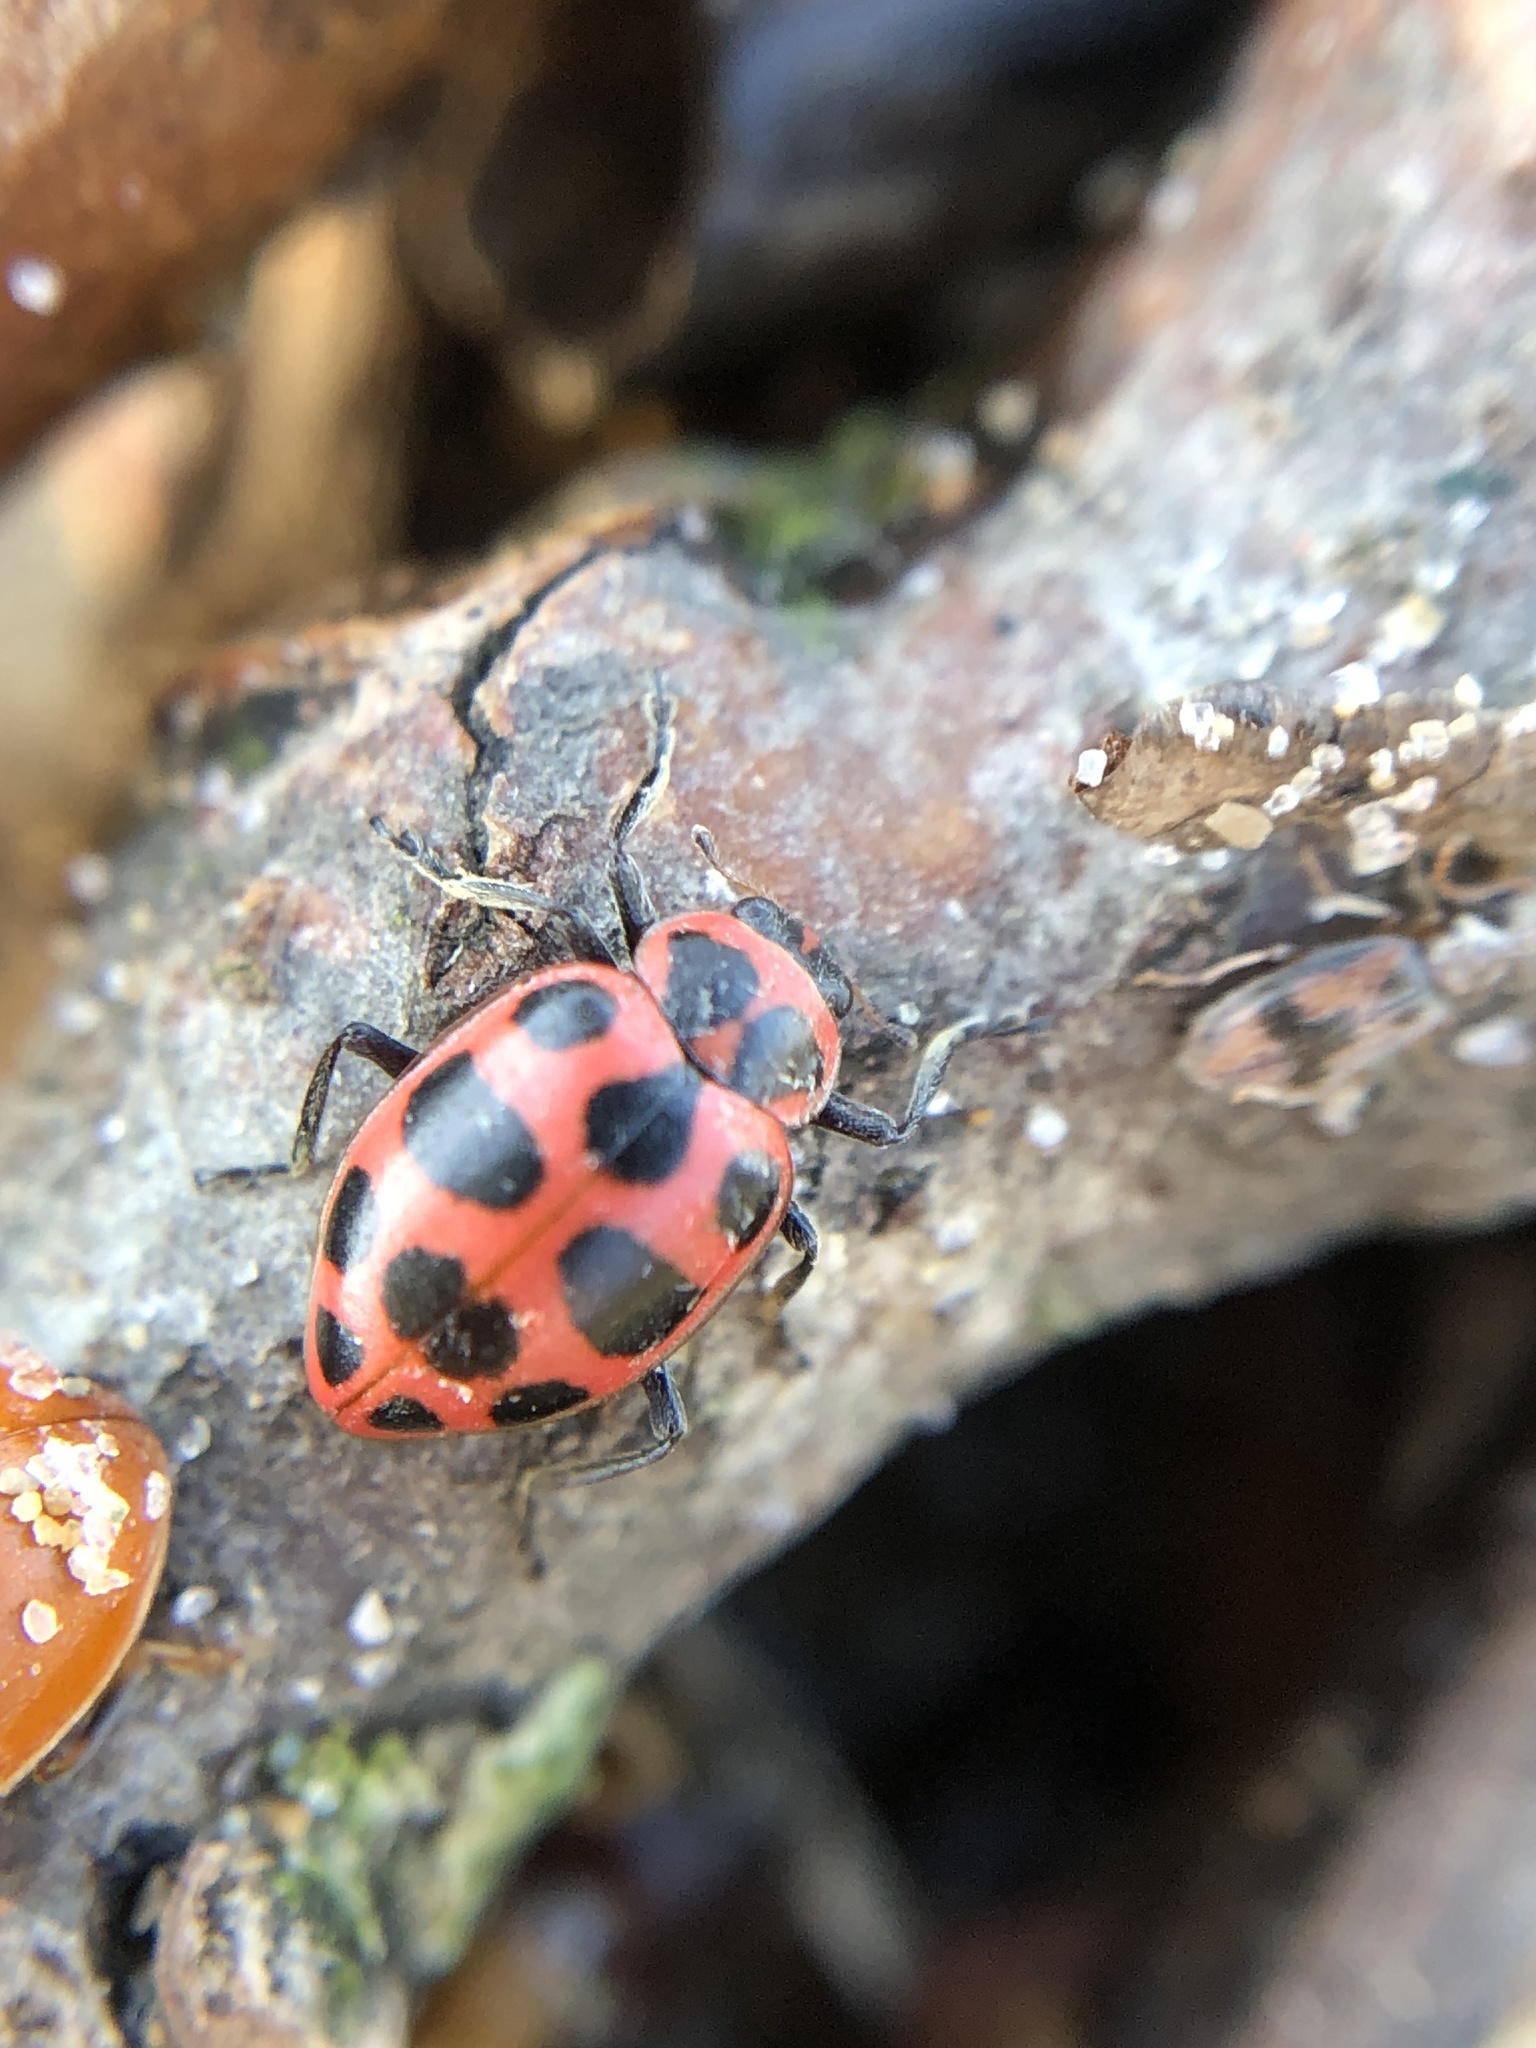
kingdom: Animalia
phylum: Arthropoda
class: Insecta
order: Coleoptera
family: Coccinellidae
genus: Coleomegilla
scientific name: Coleomegilla maculata
